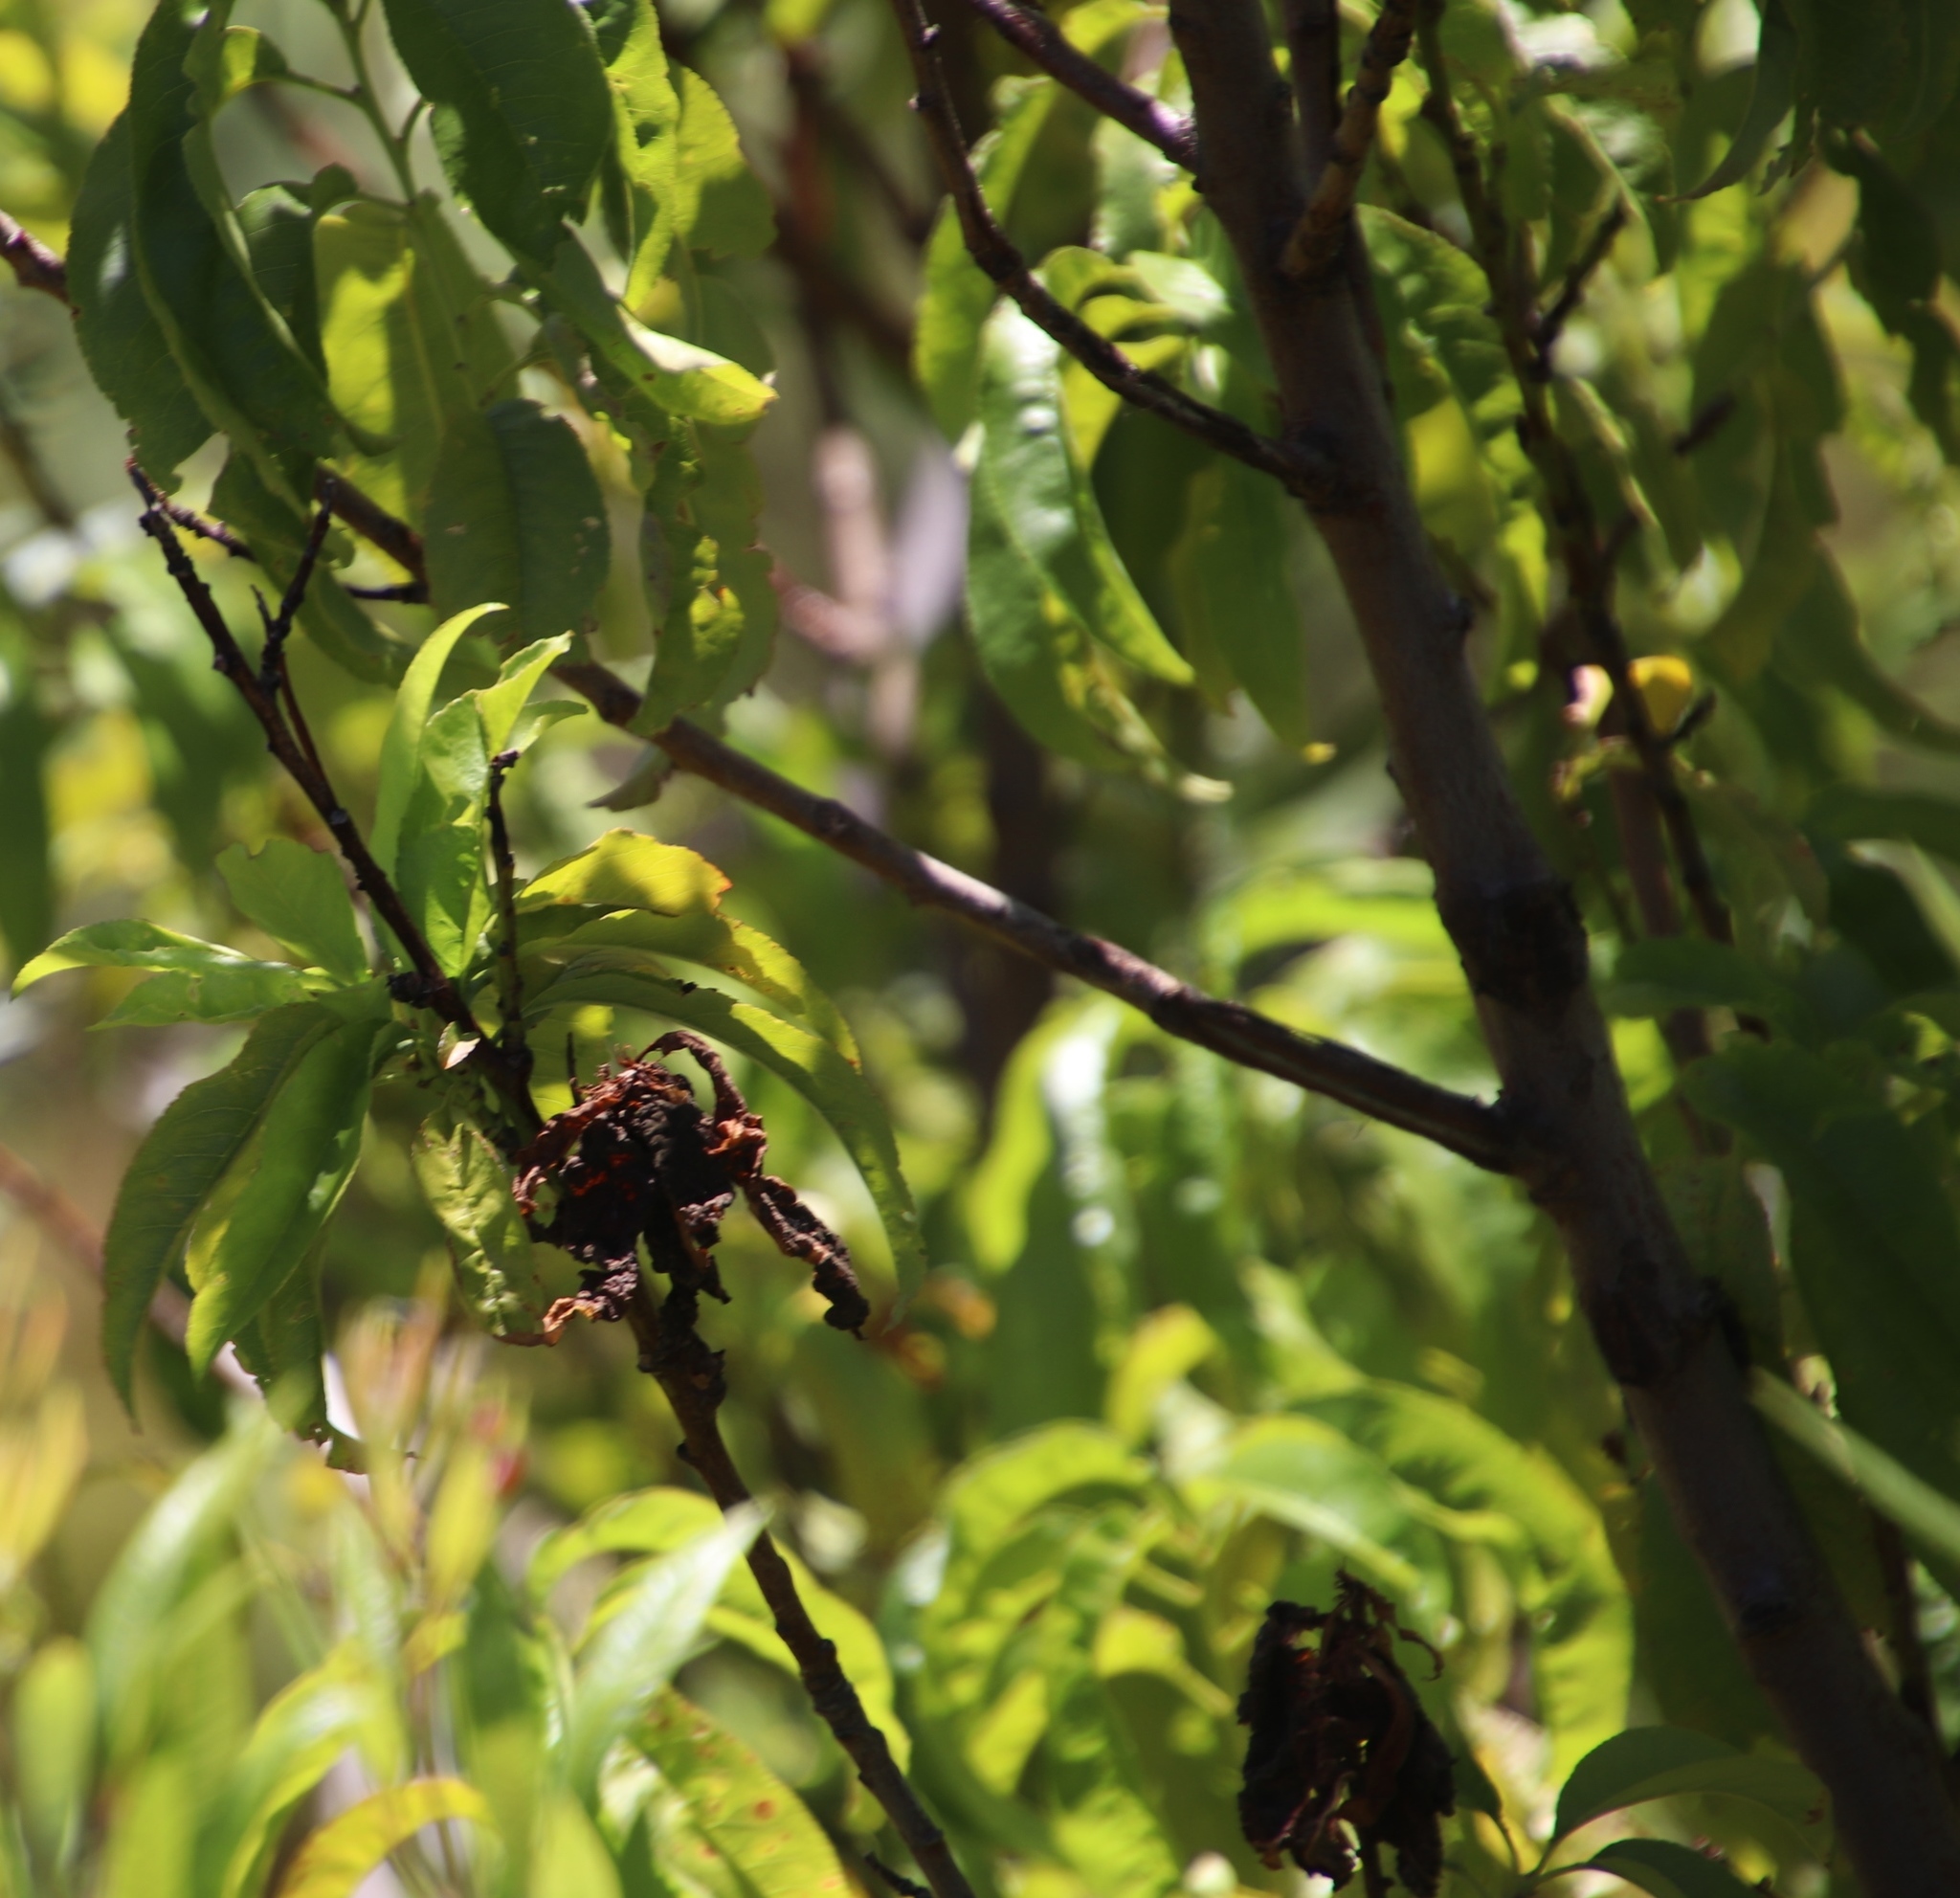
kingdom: Plantae
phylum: Tracheophyta
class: Magnoliopsida
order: Rosales
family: Rosaceae
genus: Prunus
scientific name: Prunus persica
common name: Peach
